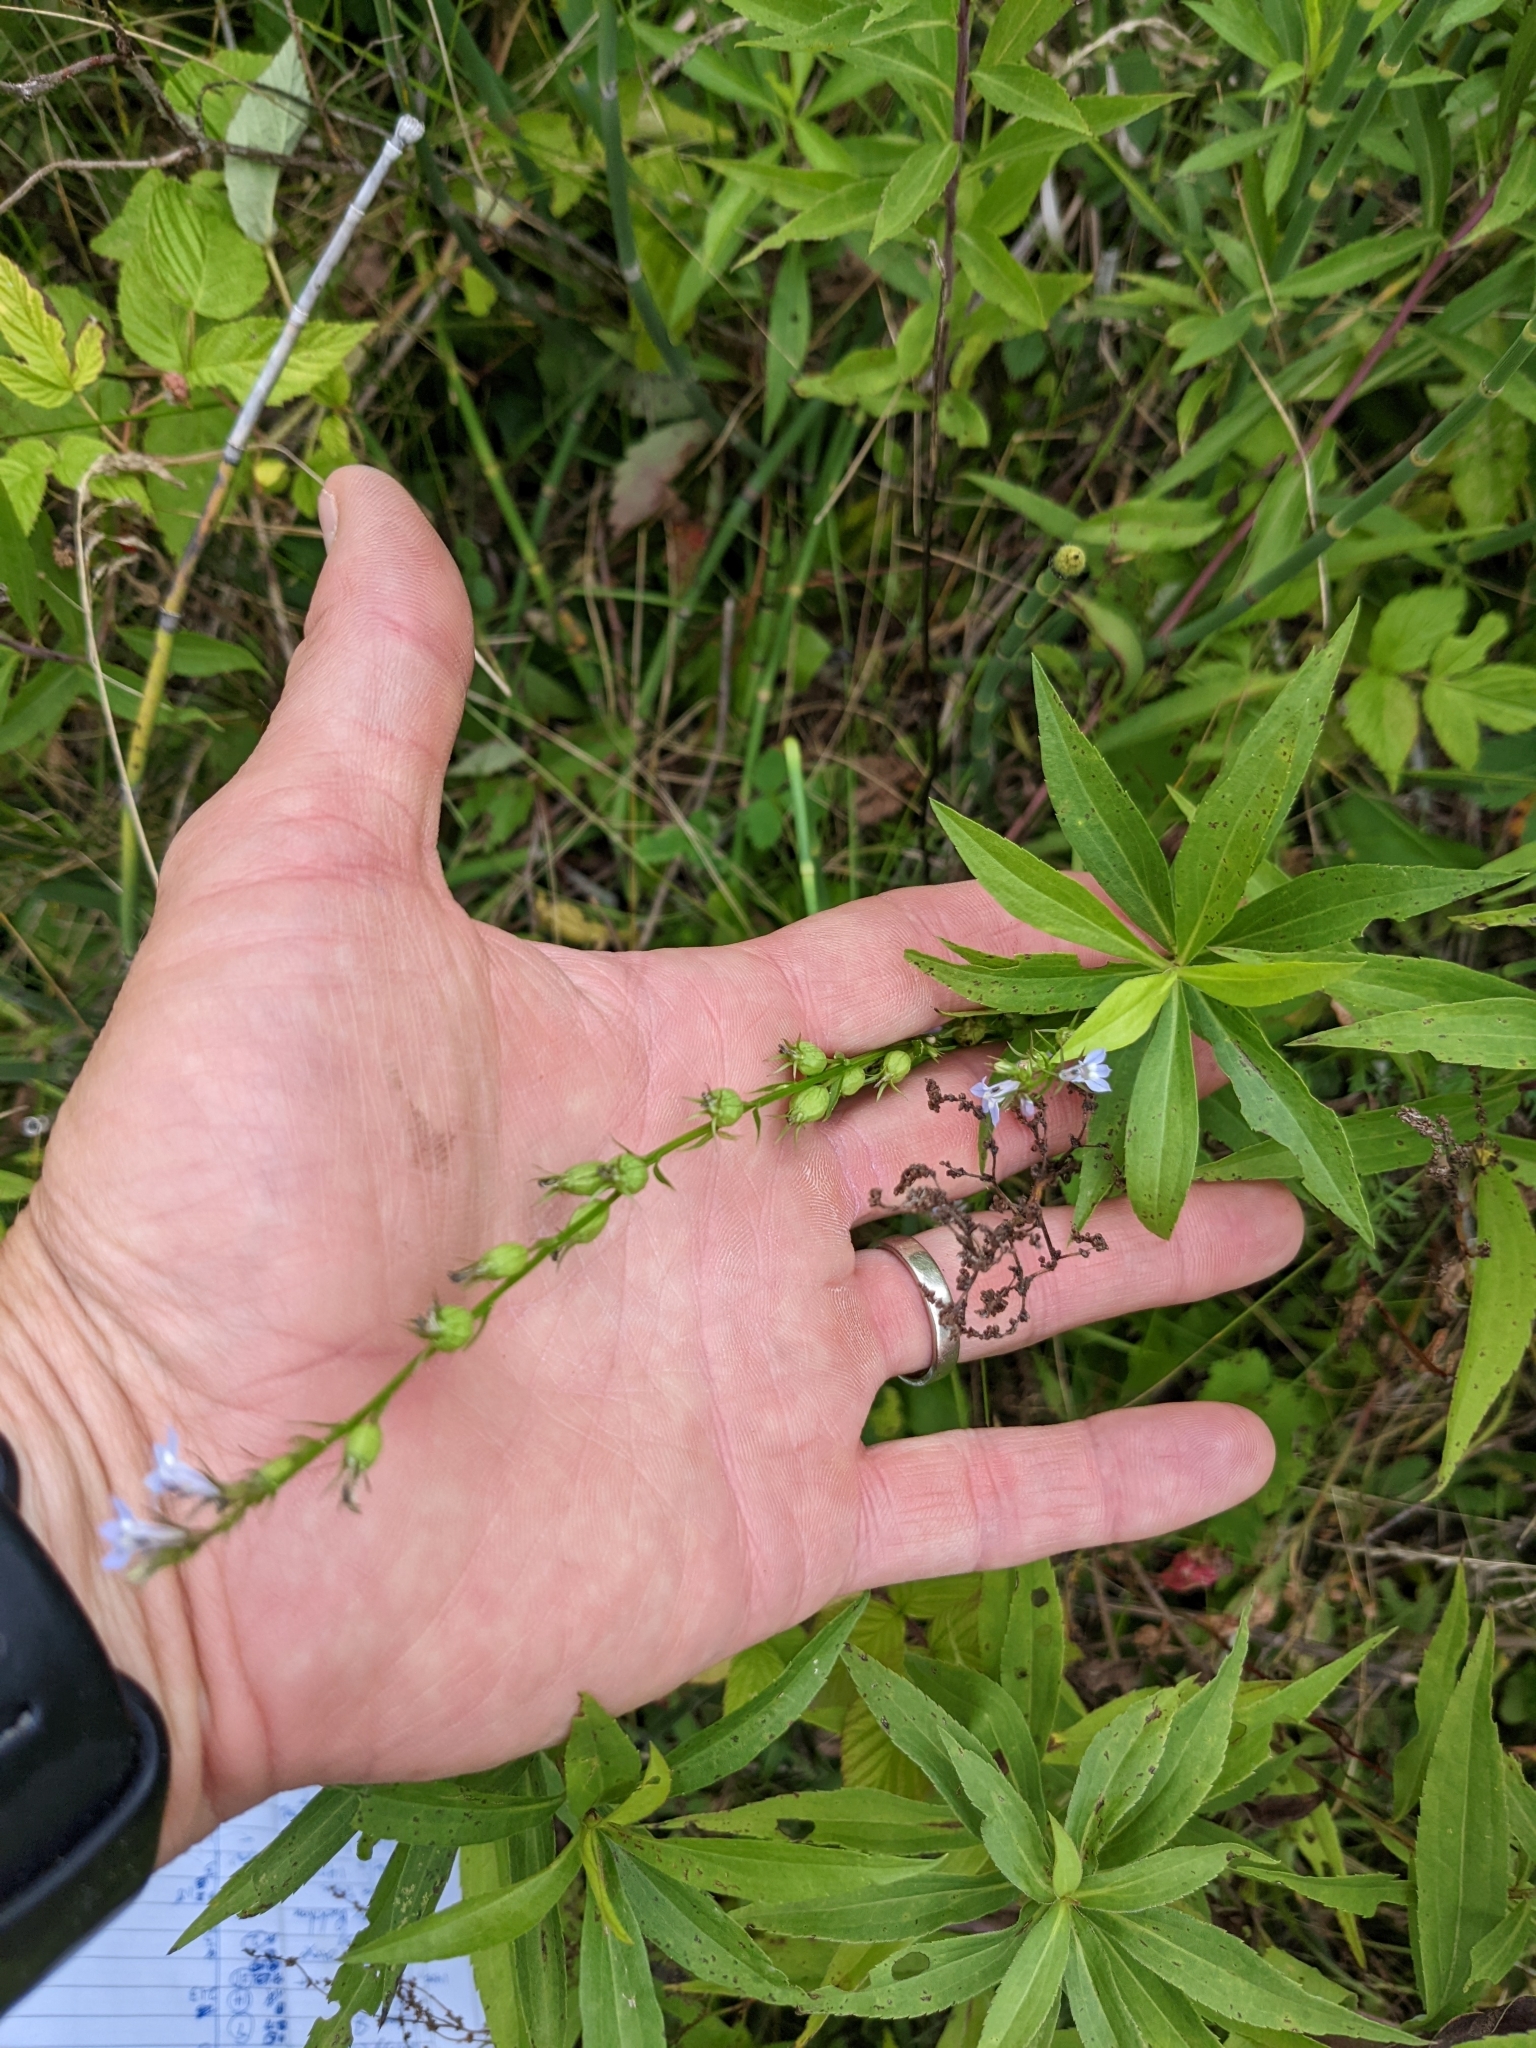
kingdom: Plantae
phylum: Tracheophyta
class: Magnoliopsida
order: Asterales
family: Campanulaceae
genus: Lobelia
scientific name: Lobelia inflata
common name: Indian tobacco
